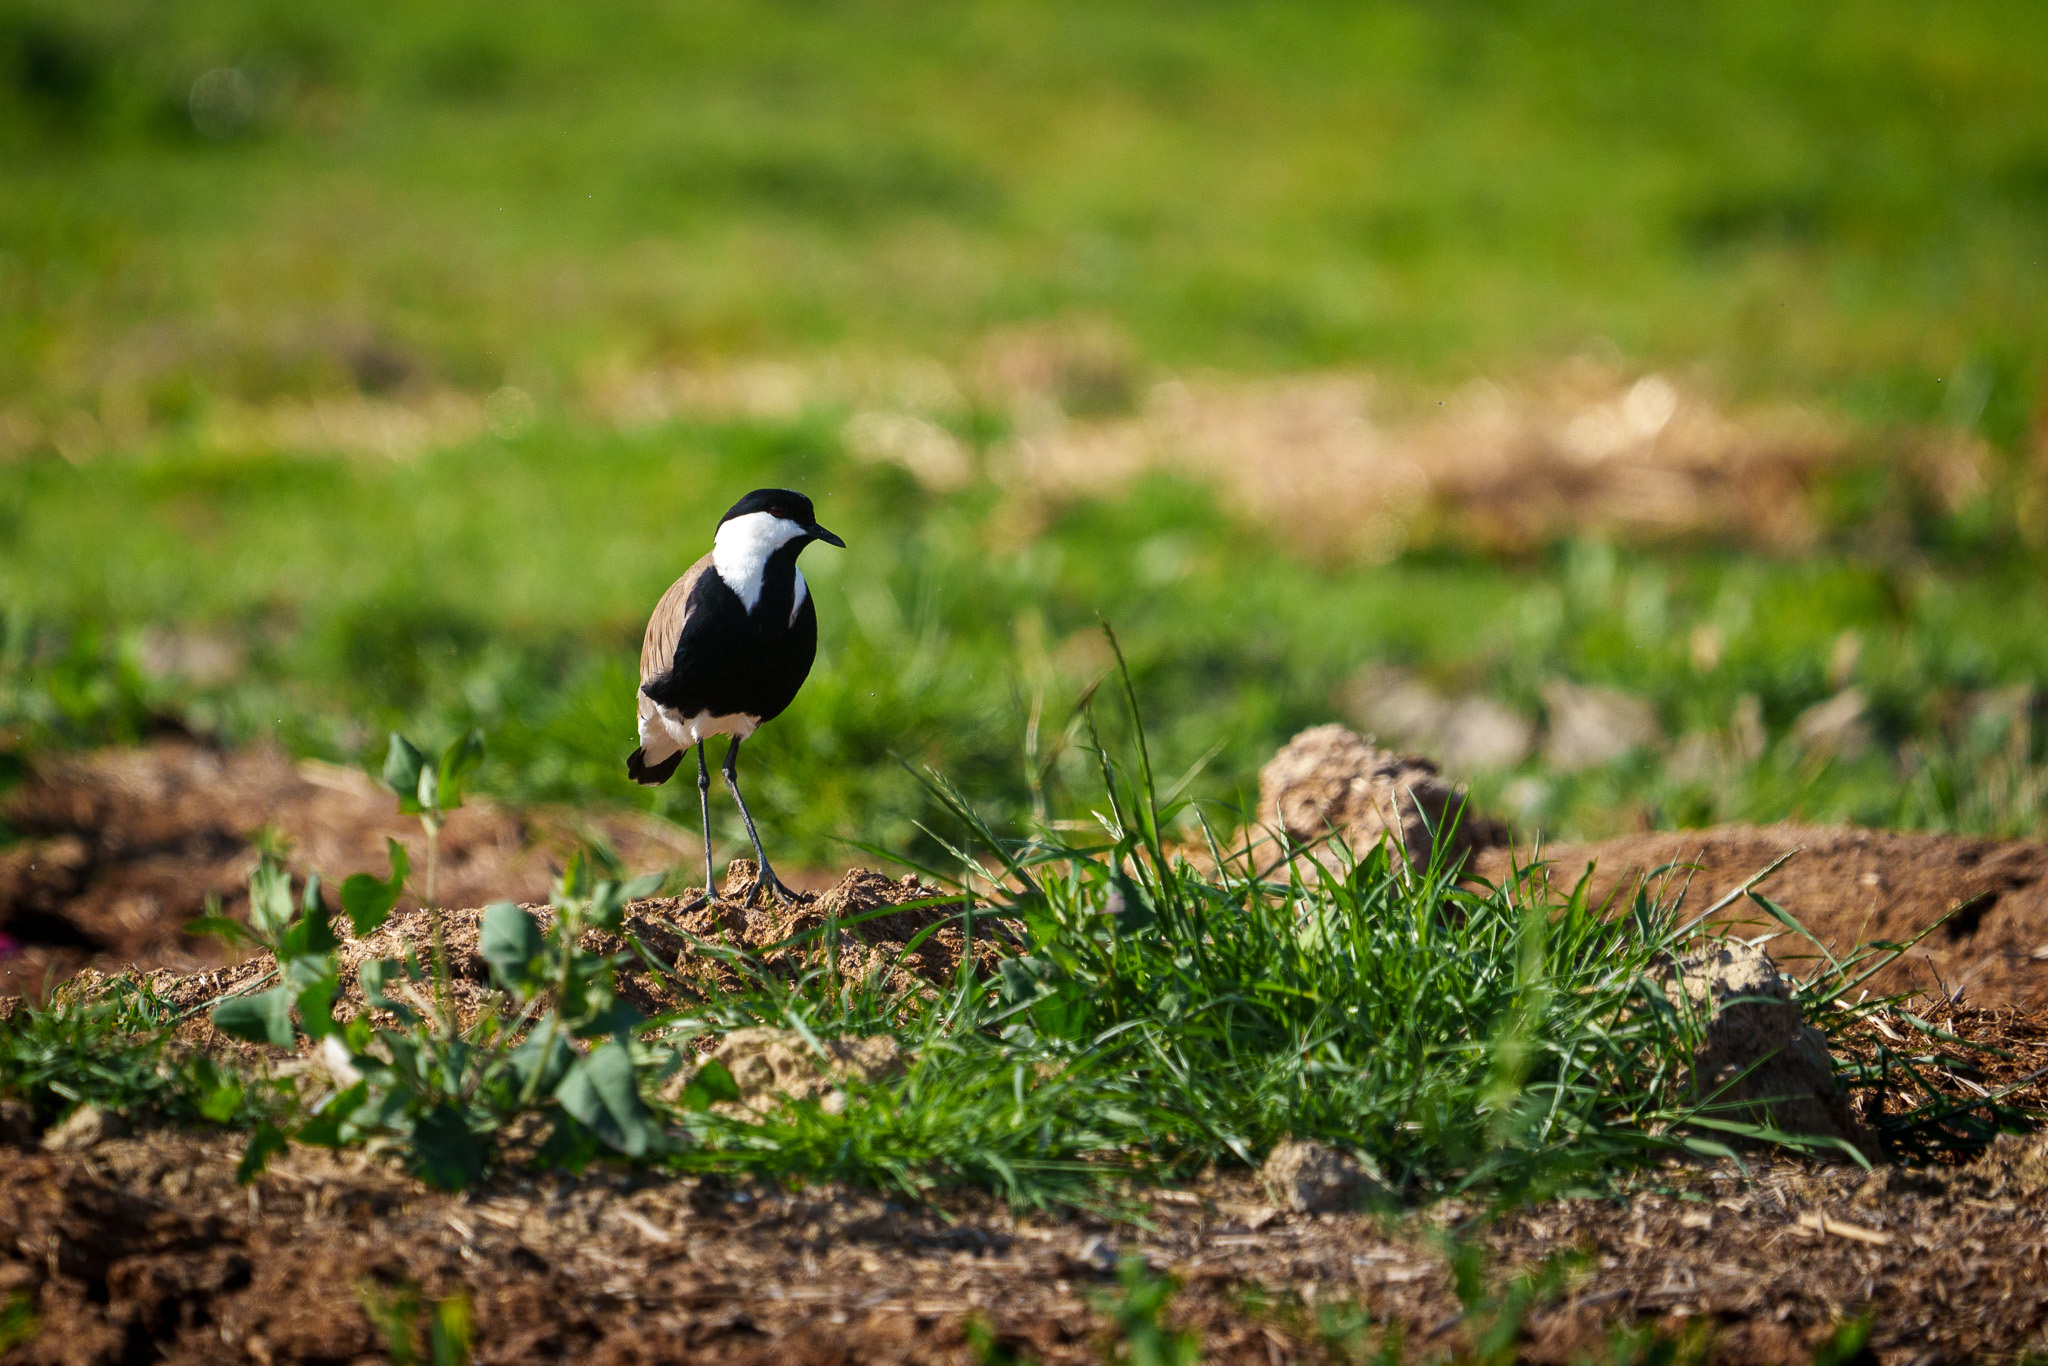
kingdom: Animalia
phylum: Chordata
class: Aves
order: Charadriiformes
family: Charadriidae
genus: Vanellus
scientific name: Vanellus spinosus
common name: Spur-winged lapwing
